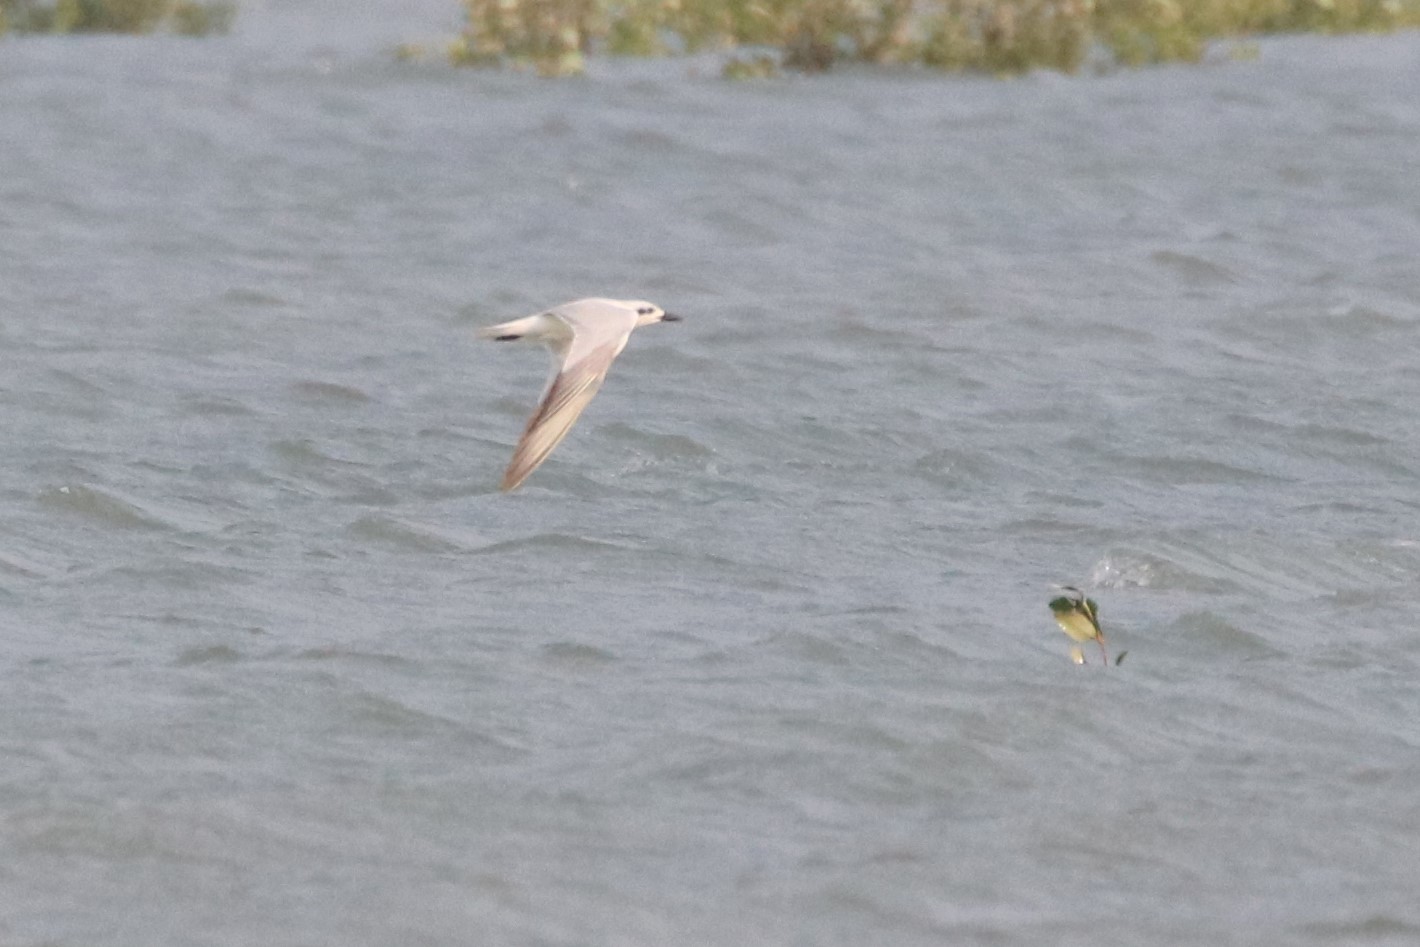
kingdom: Animalia
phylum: Chordata
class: Aves
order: Charadriiformes
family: Laridae
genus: Gelochelidon
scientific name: Gelochelidon nilotica
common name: Gull-billed tern
